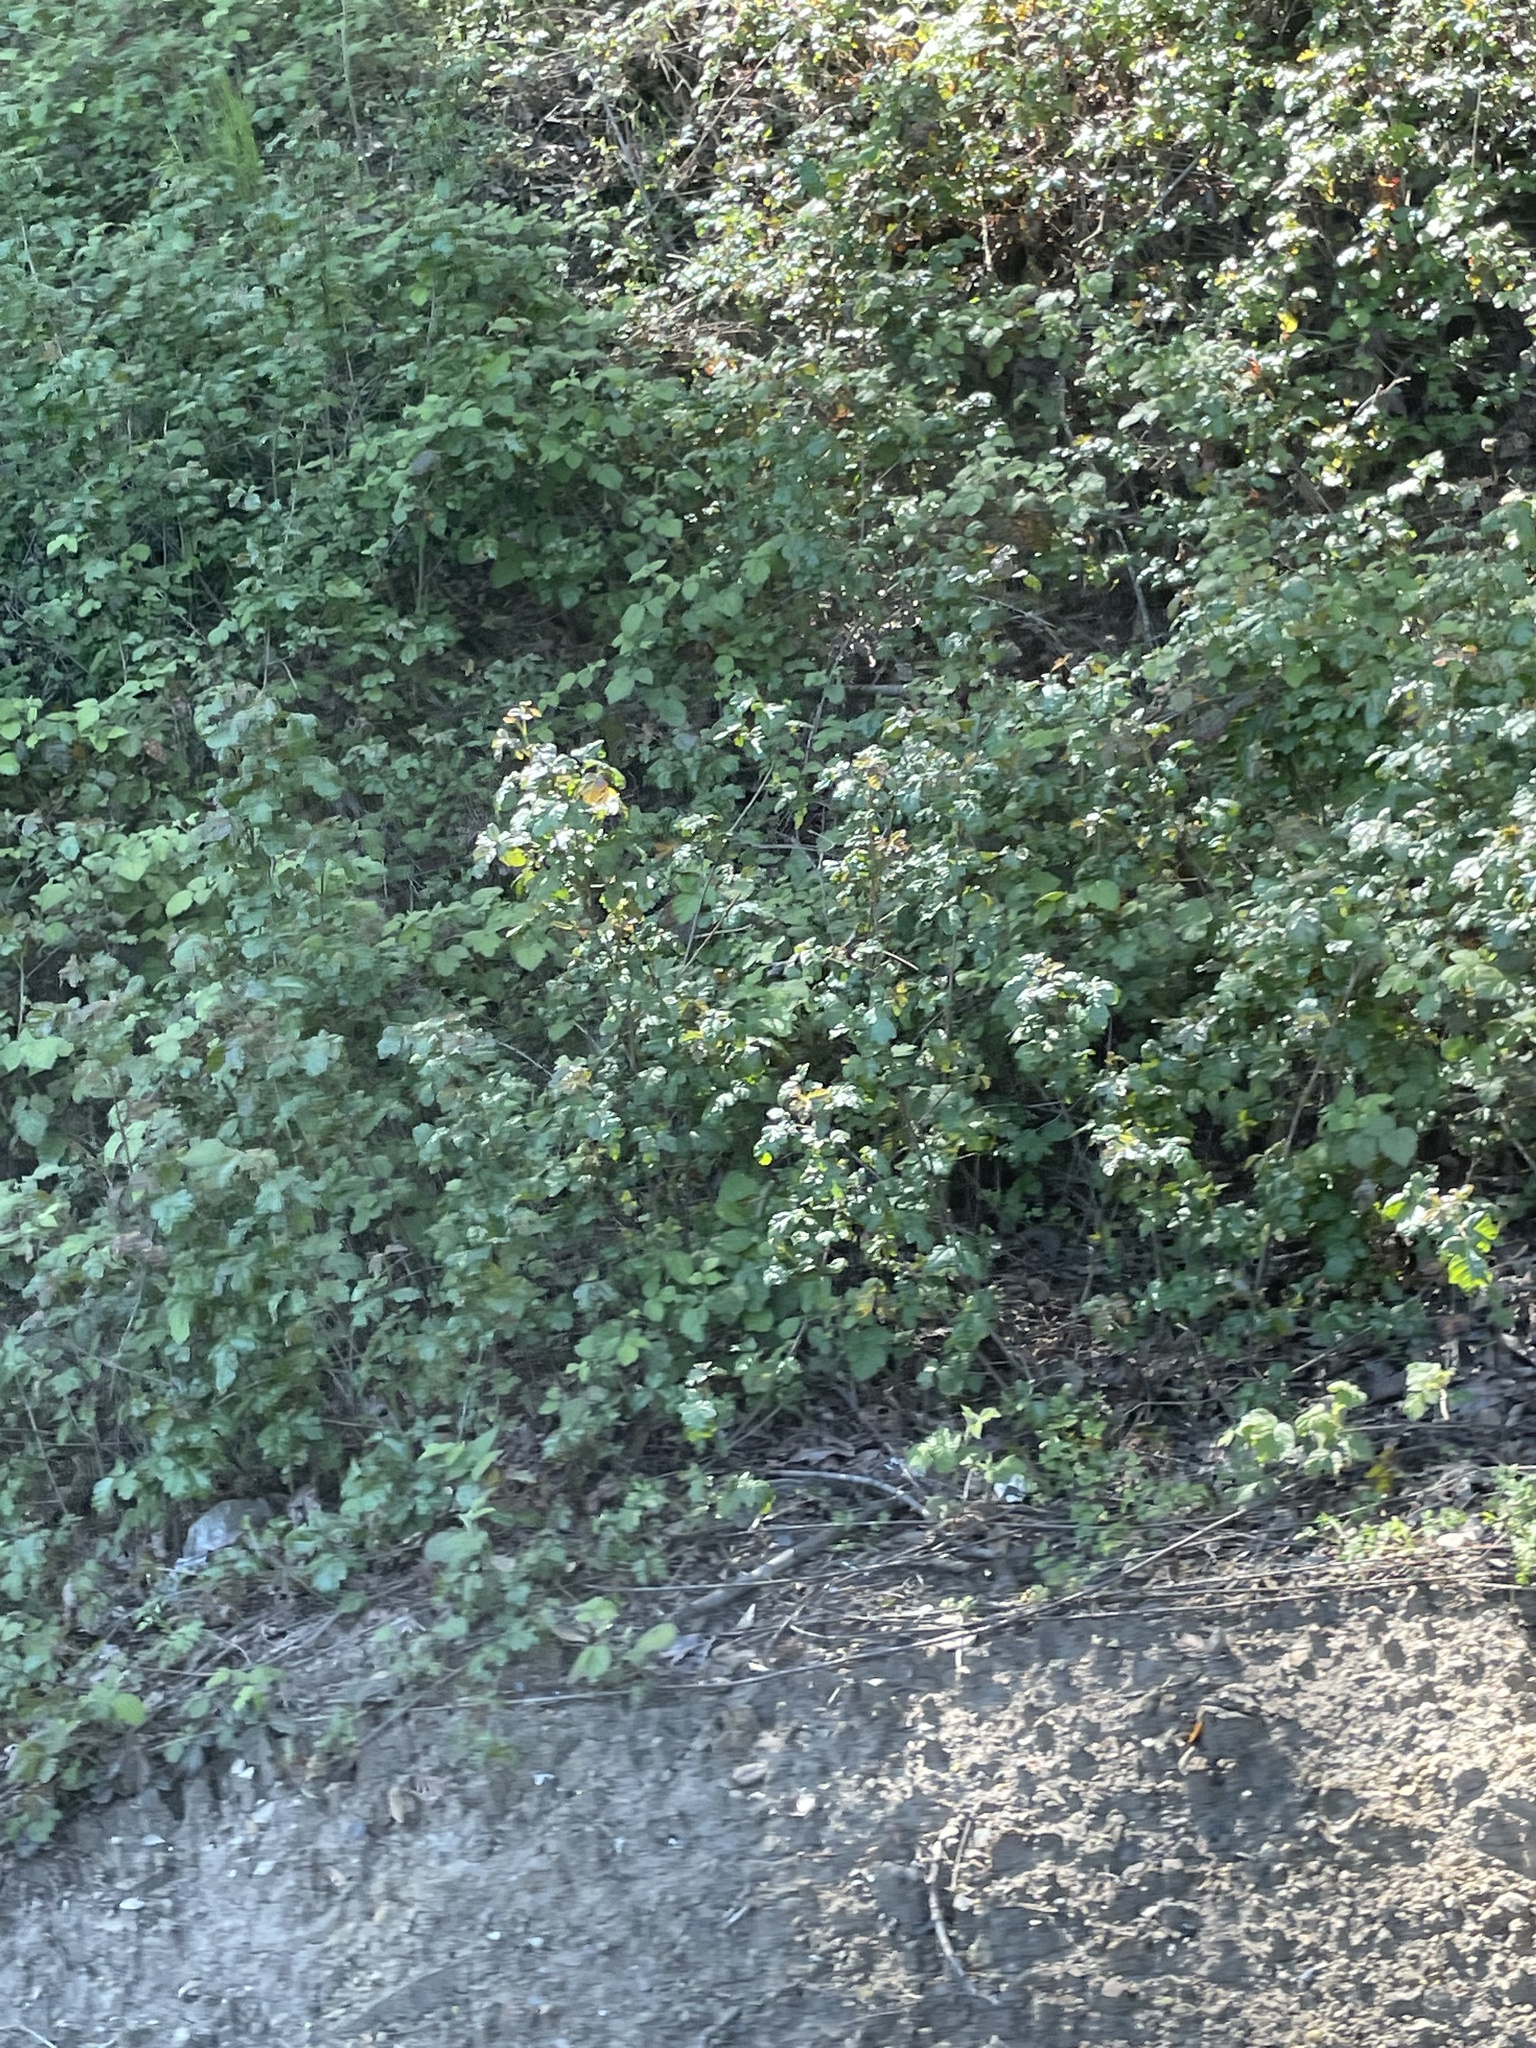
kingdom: Plantae
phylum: Tracheophyta
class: Magnoliopsida
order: Sapindales
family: Anacardiaceae
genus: Toxicodendron
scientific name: Toxicodendron diversilobum
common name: Pacific poison-oak
